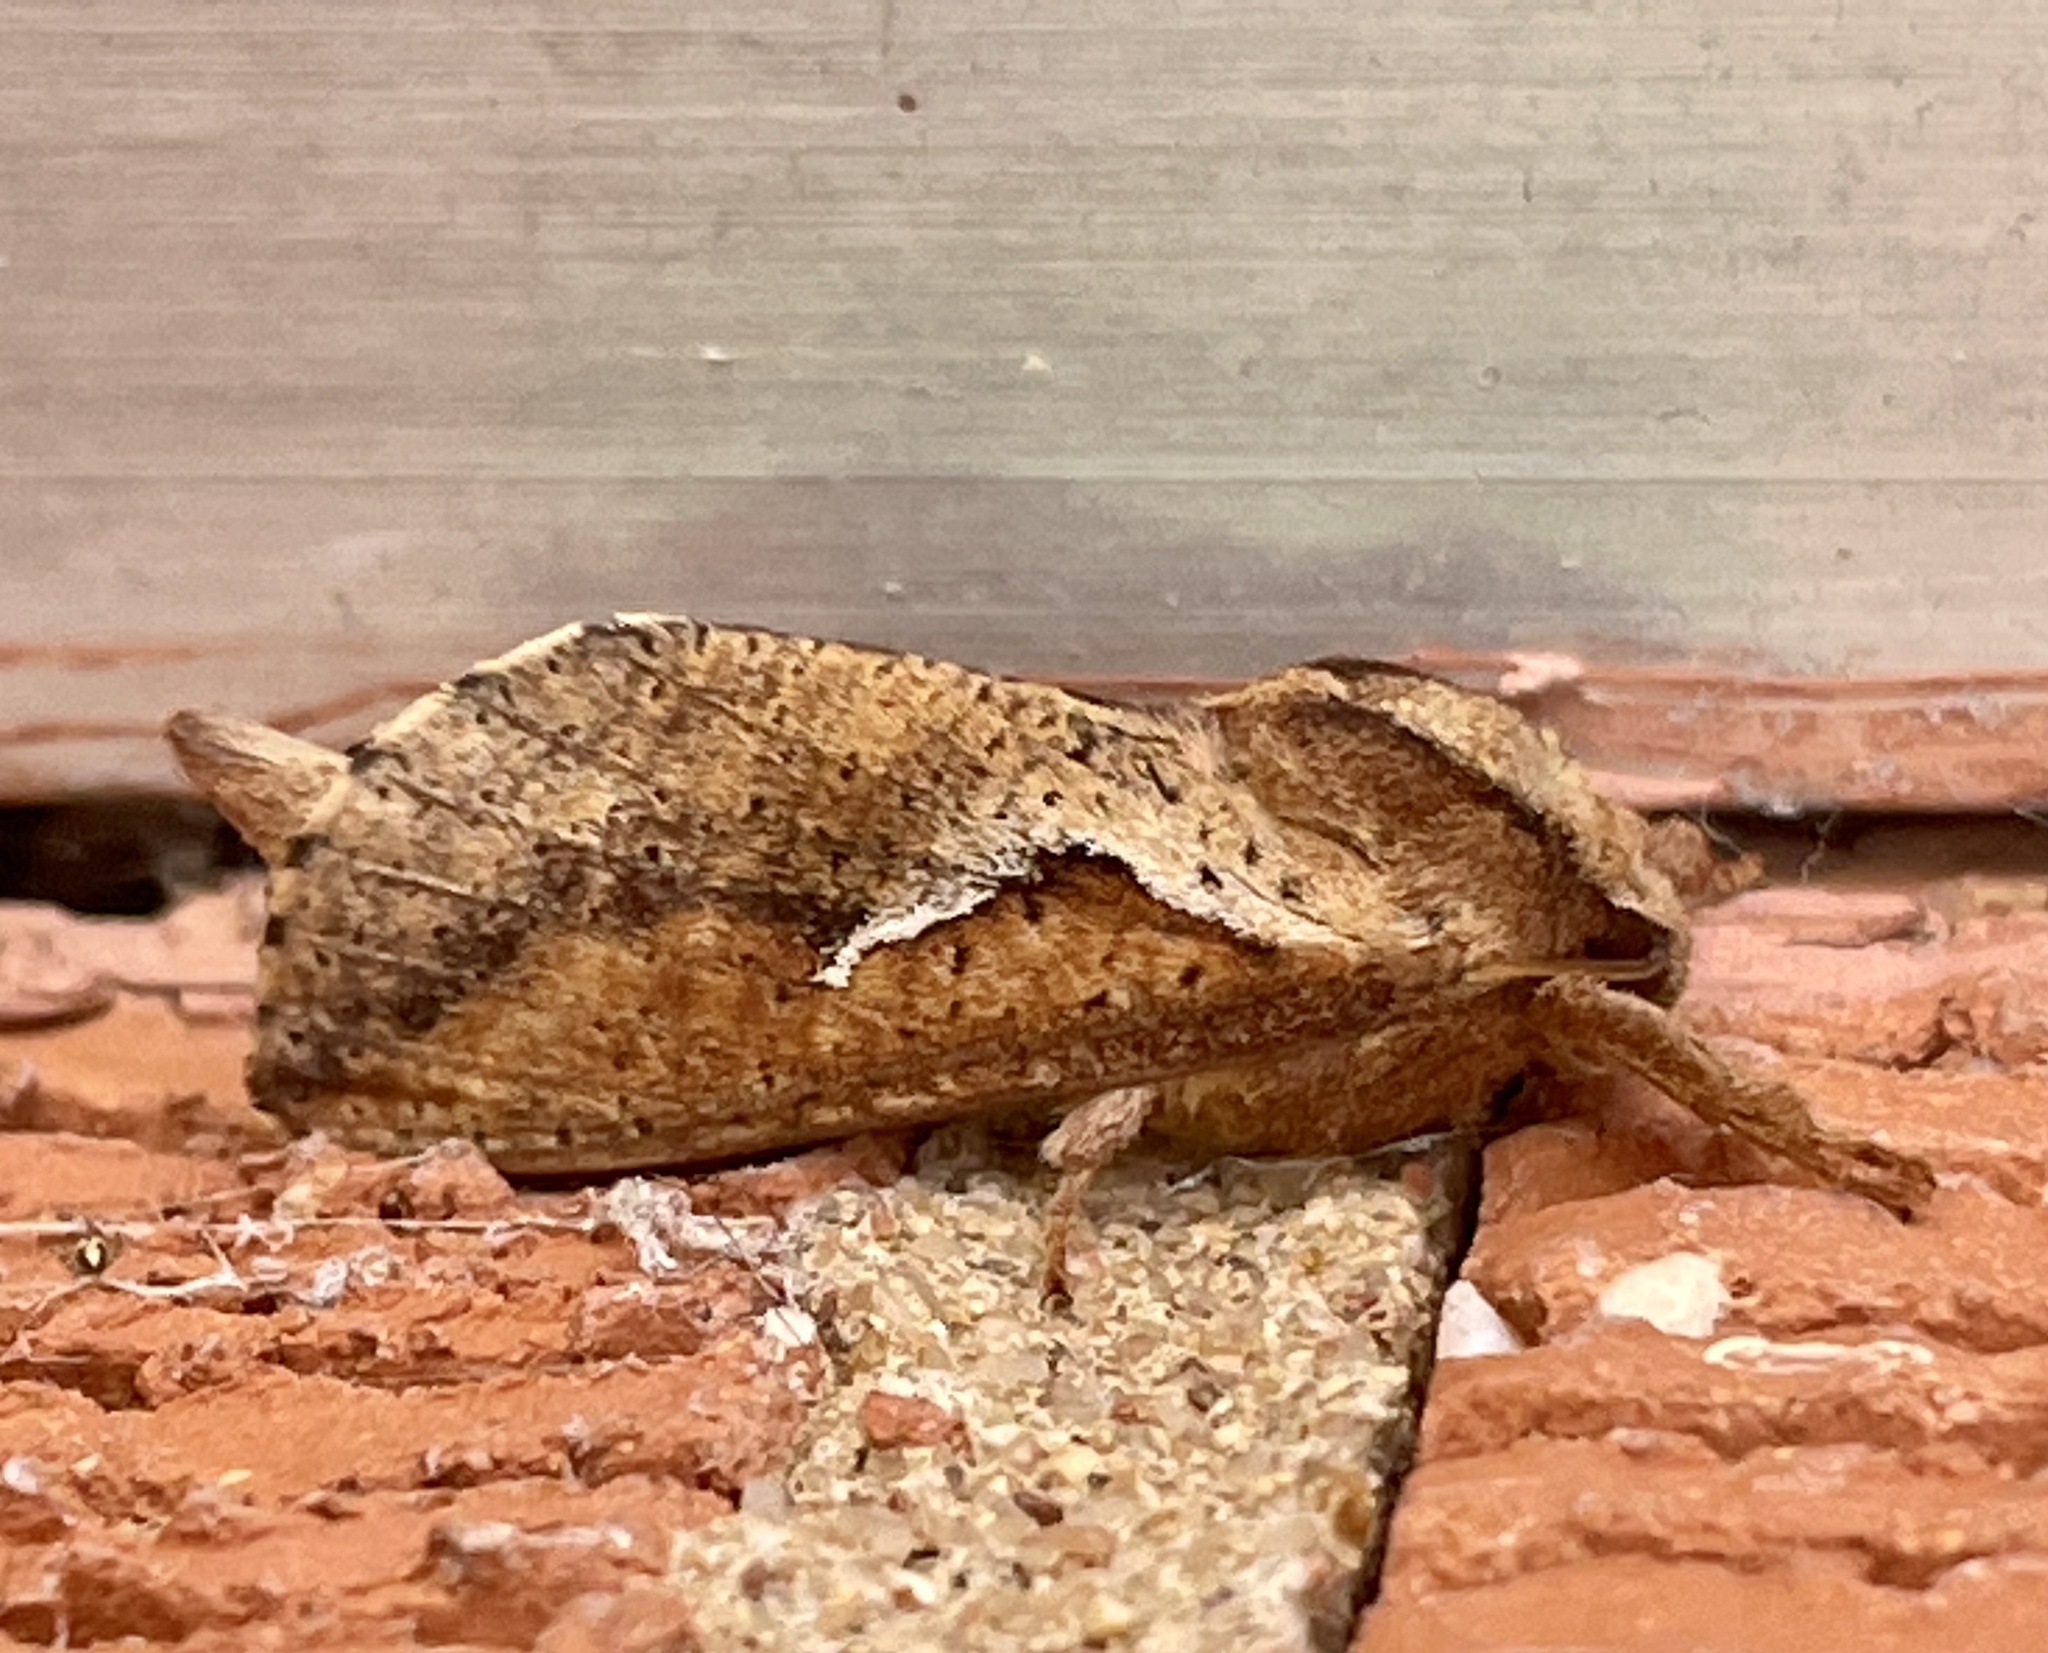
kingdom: Animalia
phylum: Arthropoda
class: Insecta
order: Lepidoptera
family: Hepialidae
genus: Elhamma
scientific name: Elhamma australasiae
